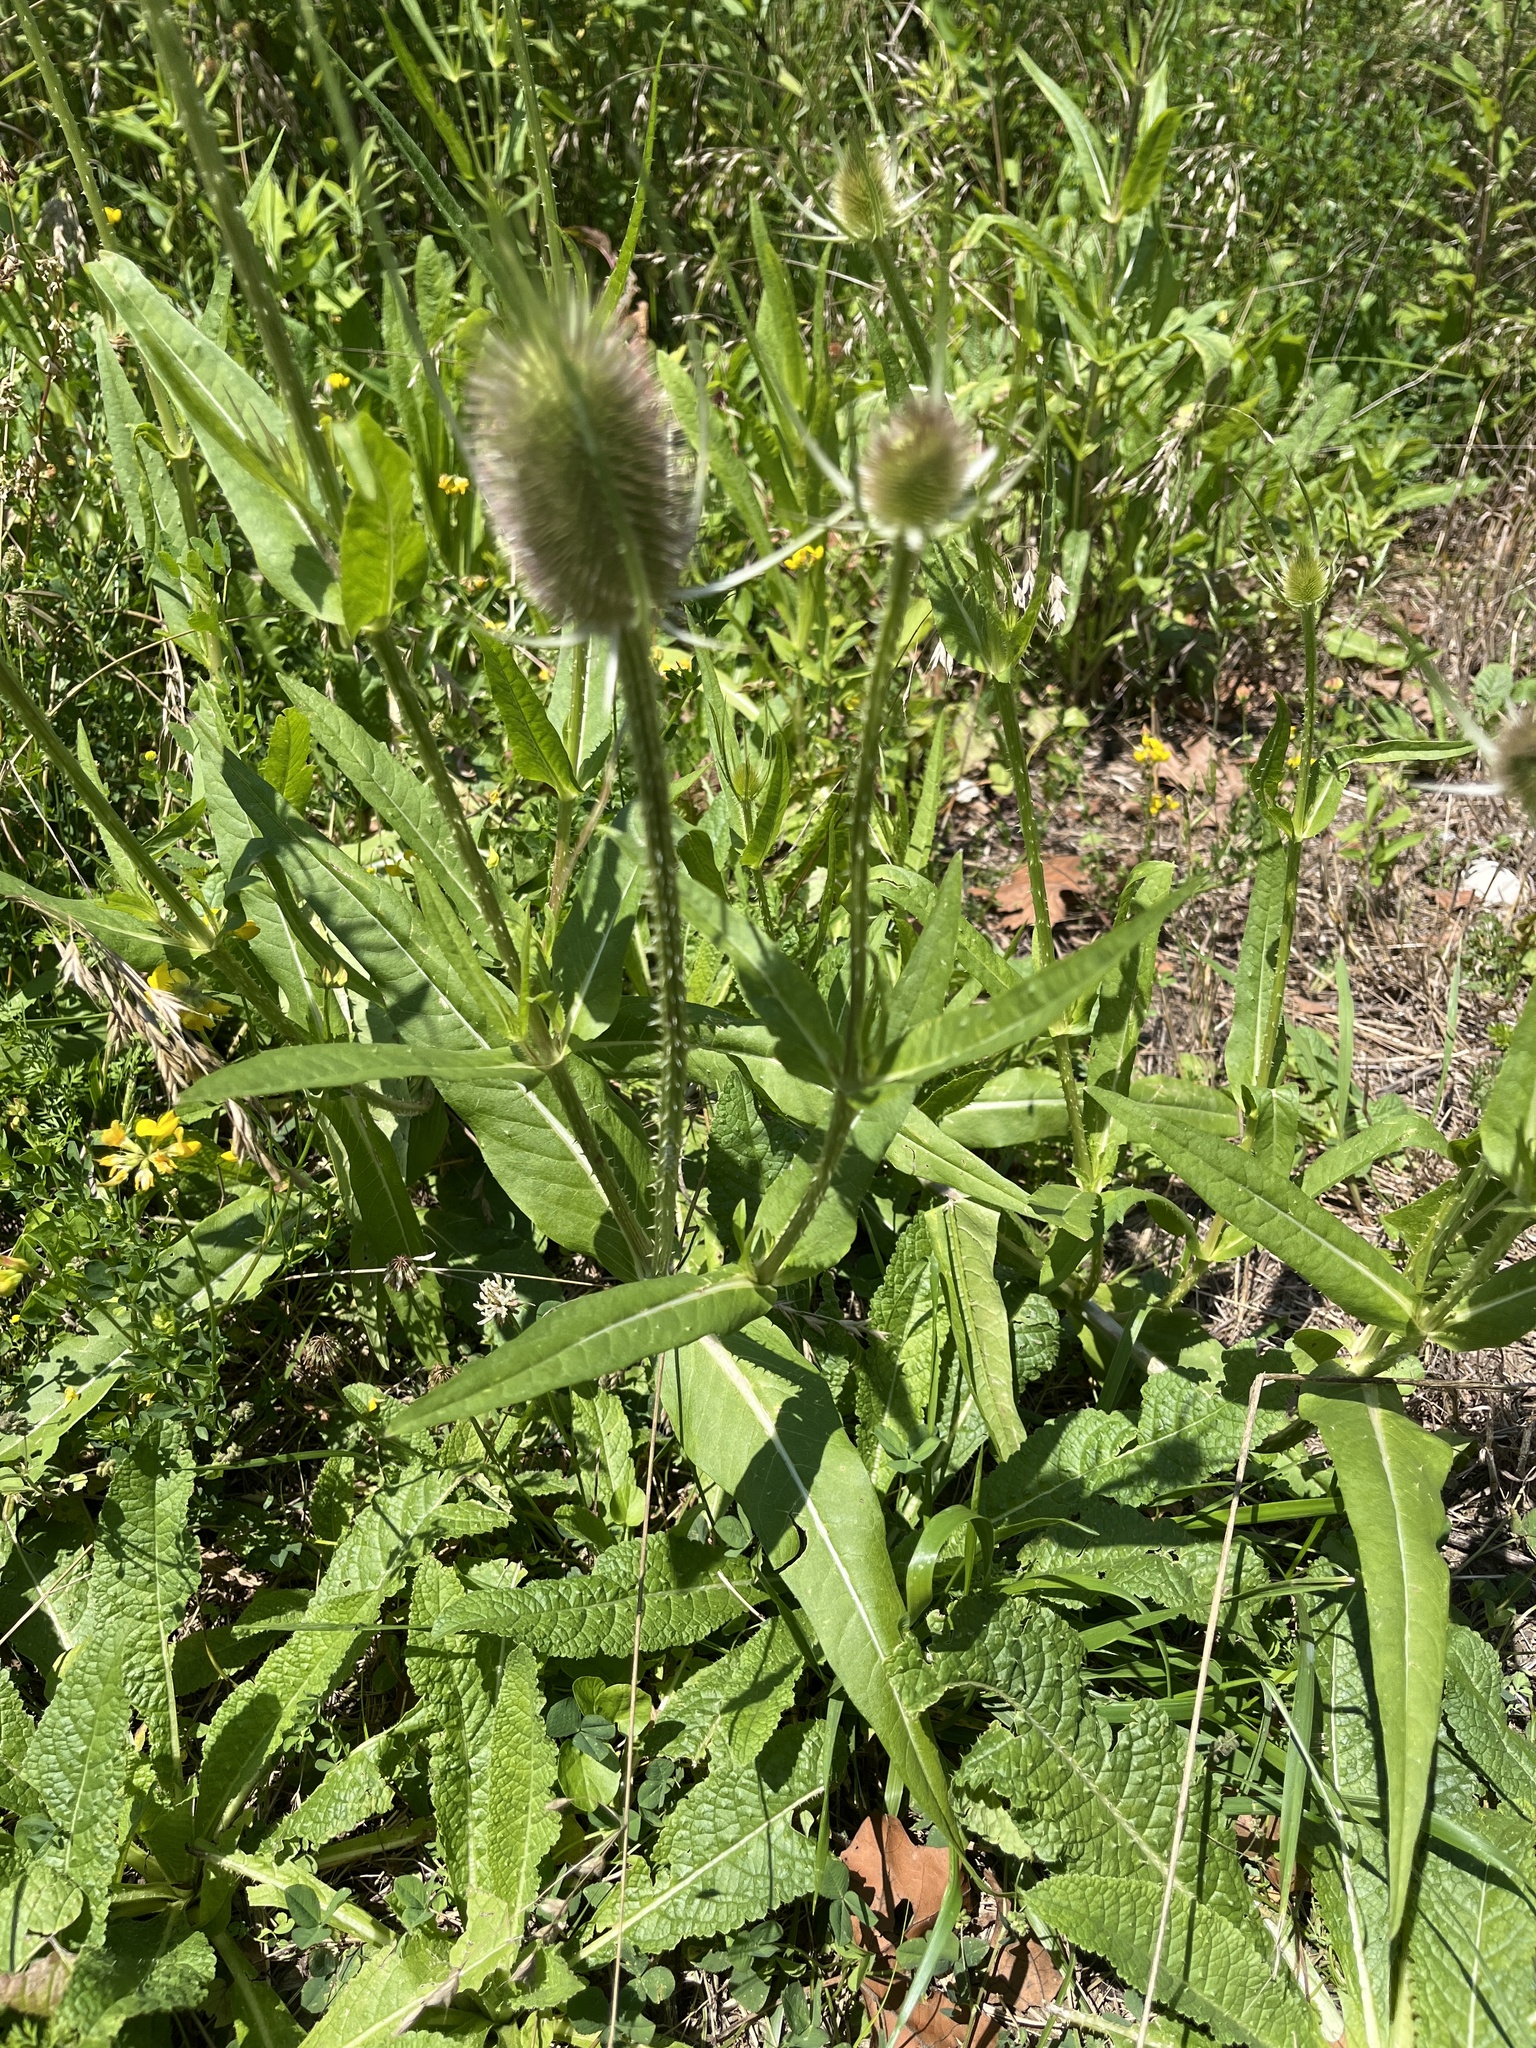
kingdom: Plantae
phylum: Tracheophyta
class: Magnoliopsida
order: Dipsacales
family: Caprifoliaceae
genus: Dipsacus
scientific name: Dipsacus fullonum
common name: Teasel
